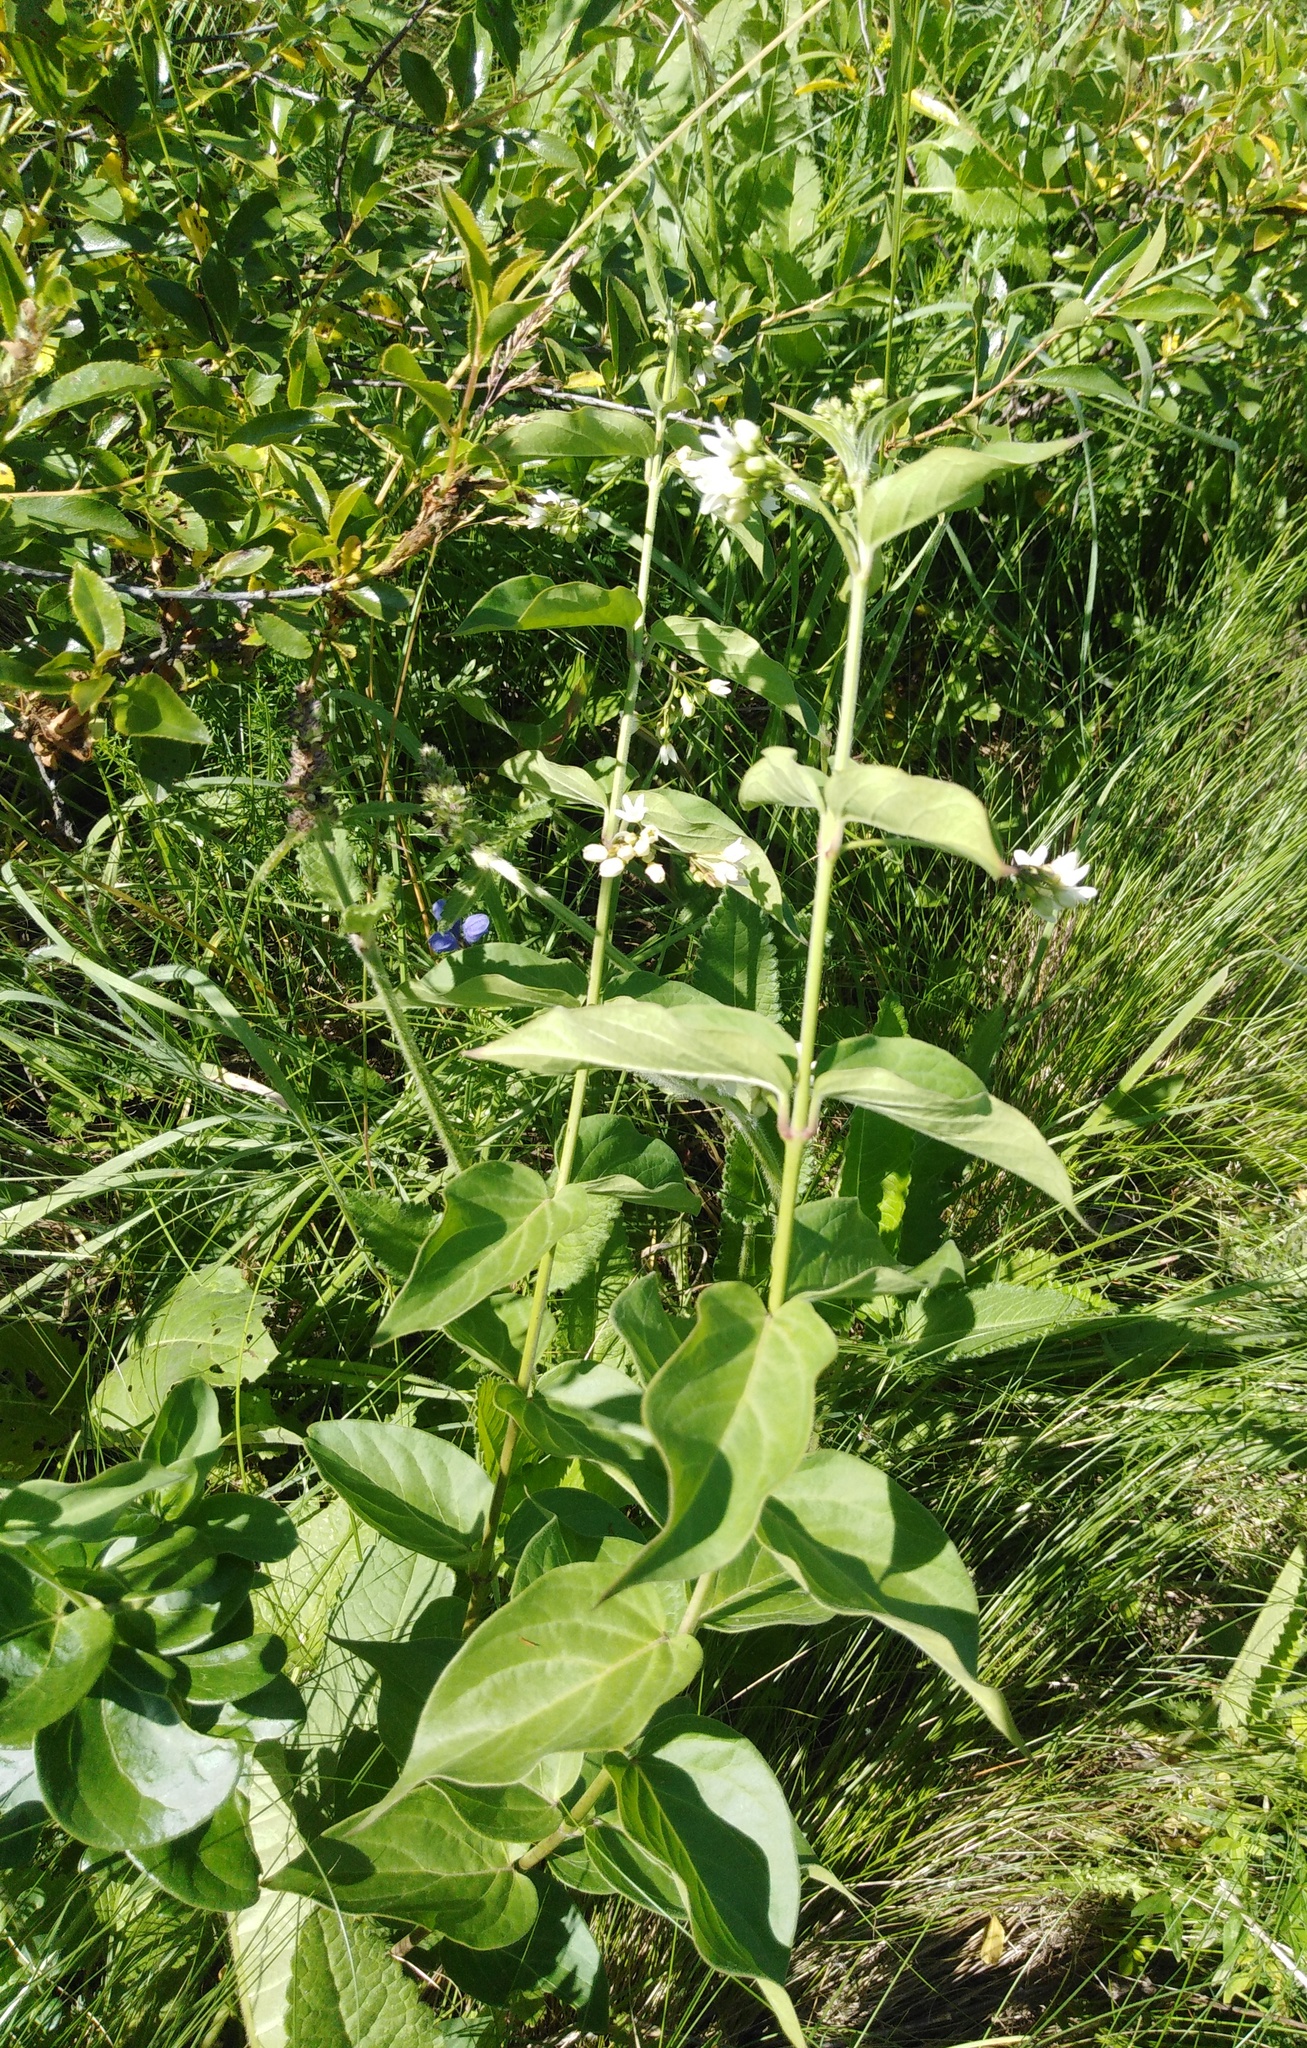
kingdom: Plantae
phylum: Tracheophyta
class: Magnoliopsida
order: Gentianales
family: Apocynaceae
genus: Vincetoxicum
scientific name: Vincetoxicum hirundinaria
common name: White swallowwort
